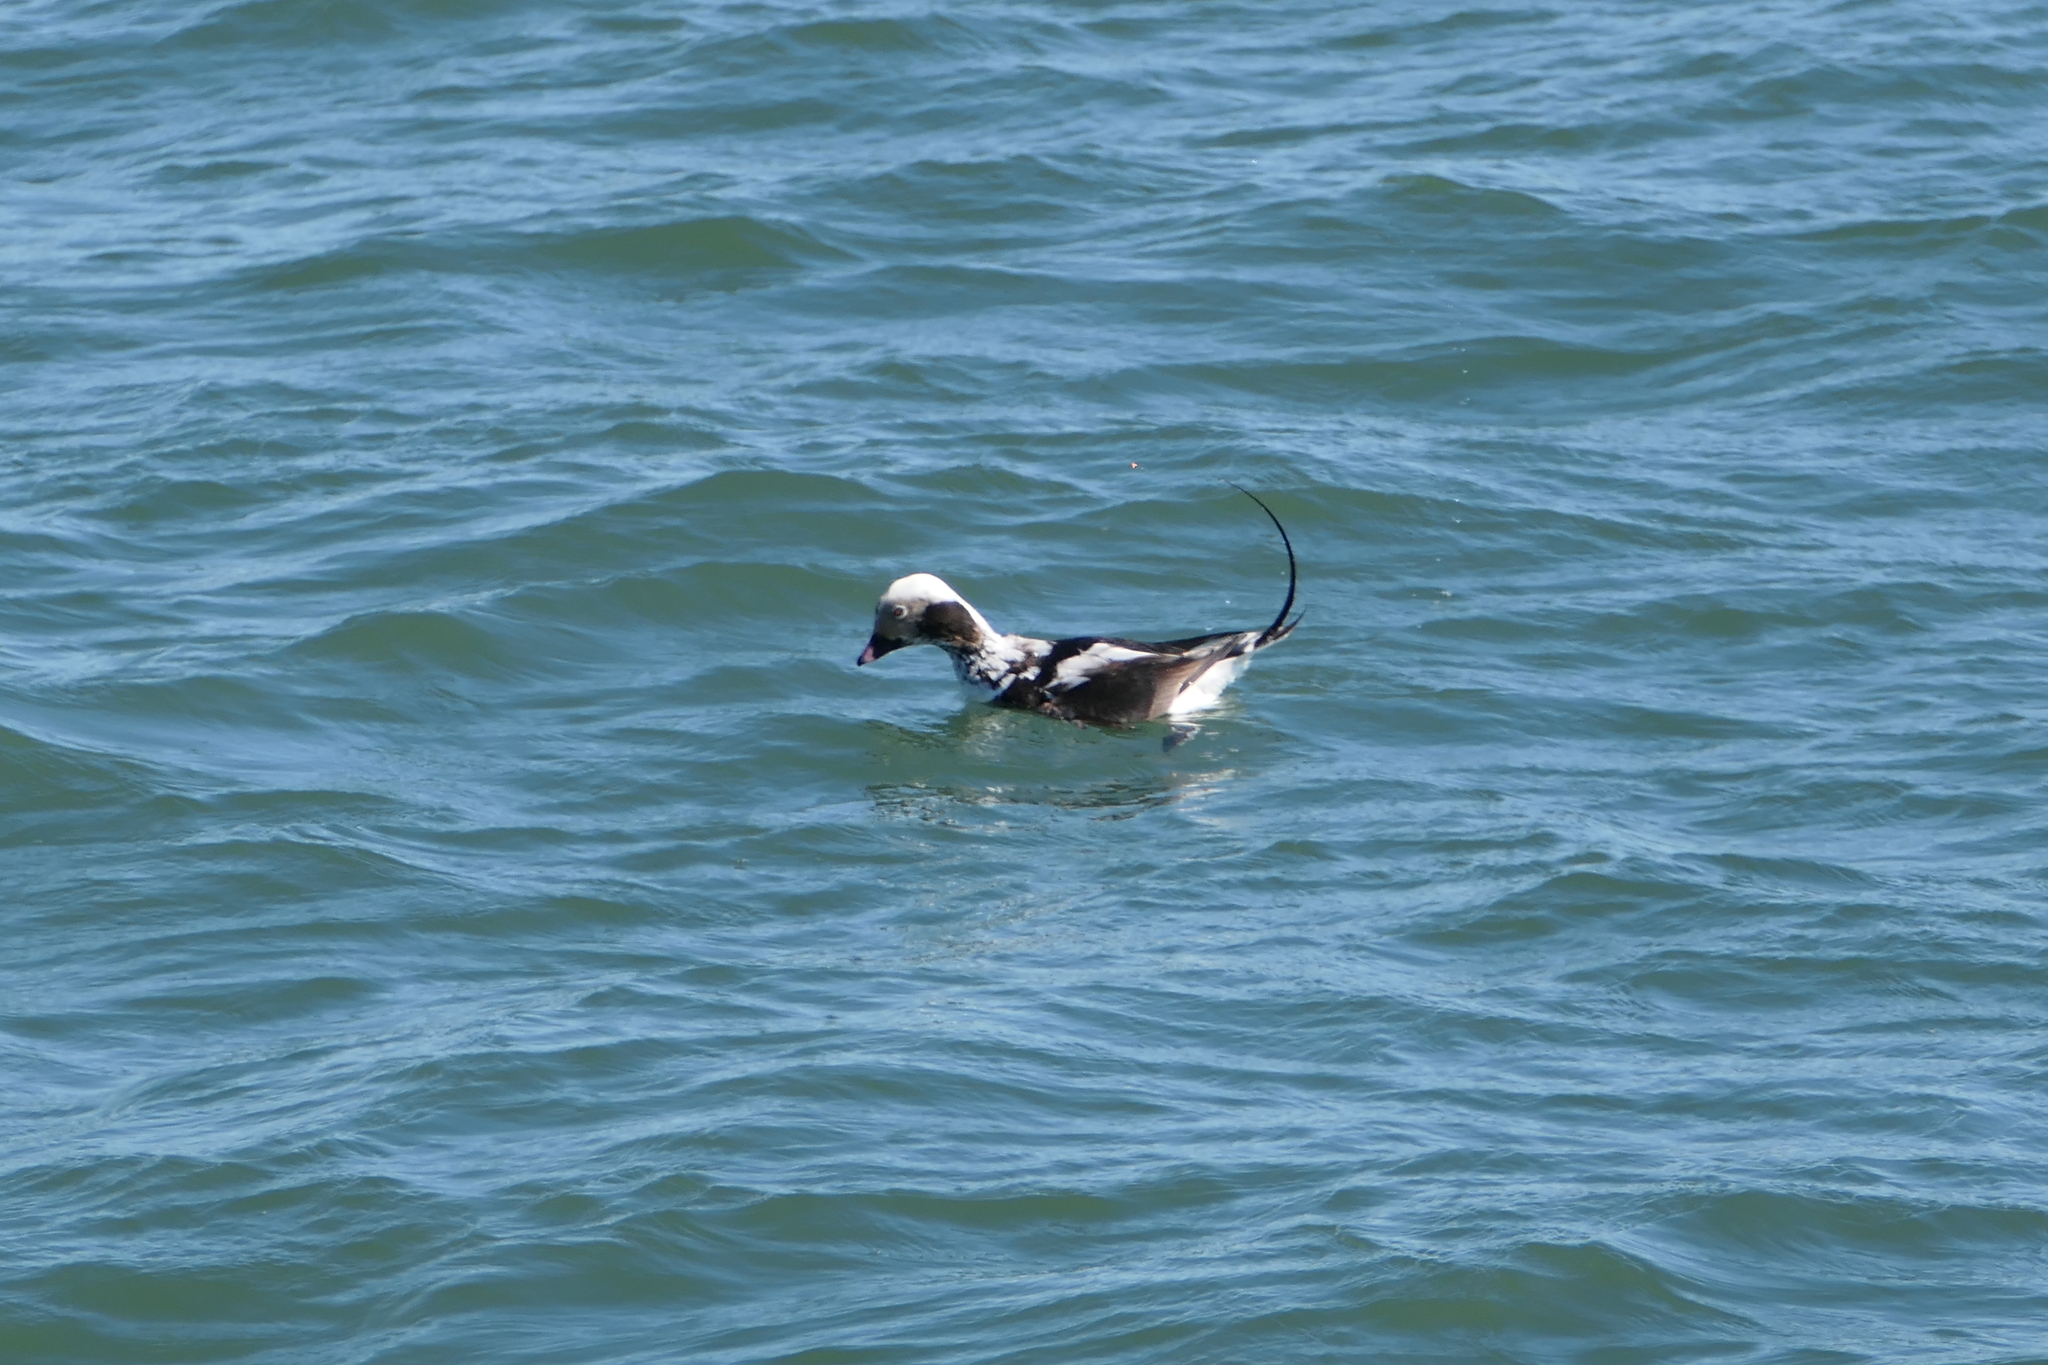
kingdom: Animalia
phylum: Chordata
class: Aves
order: Anseriformes
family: Anatidae
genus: Clangula
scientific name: Clangula hyemalis
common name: Long-tailed duck
